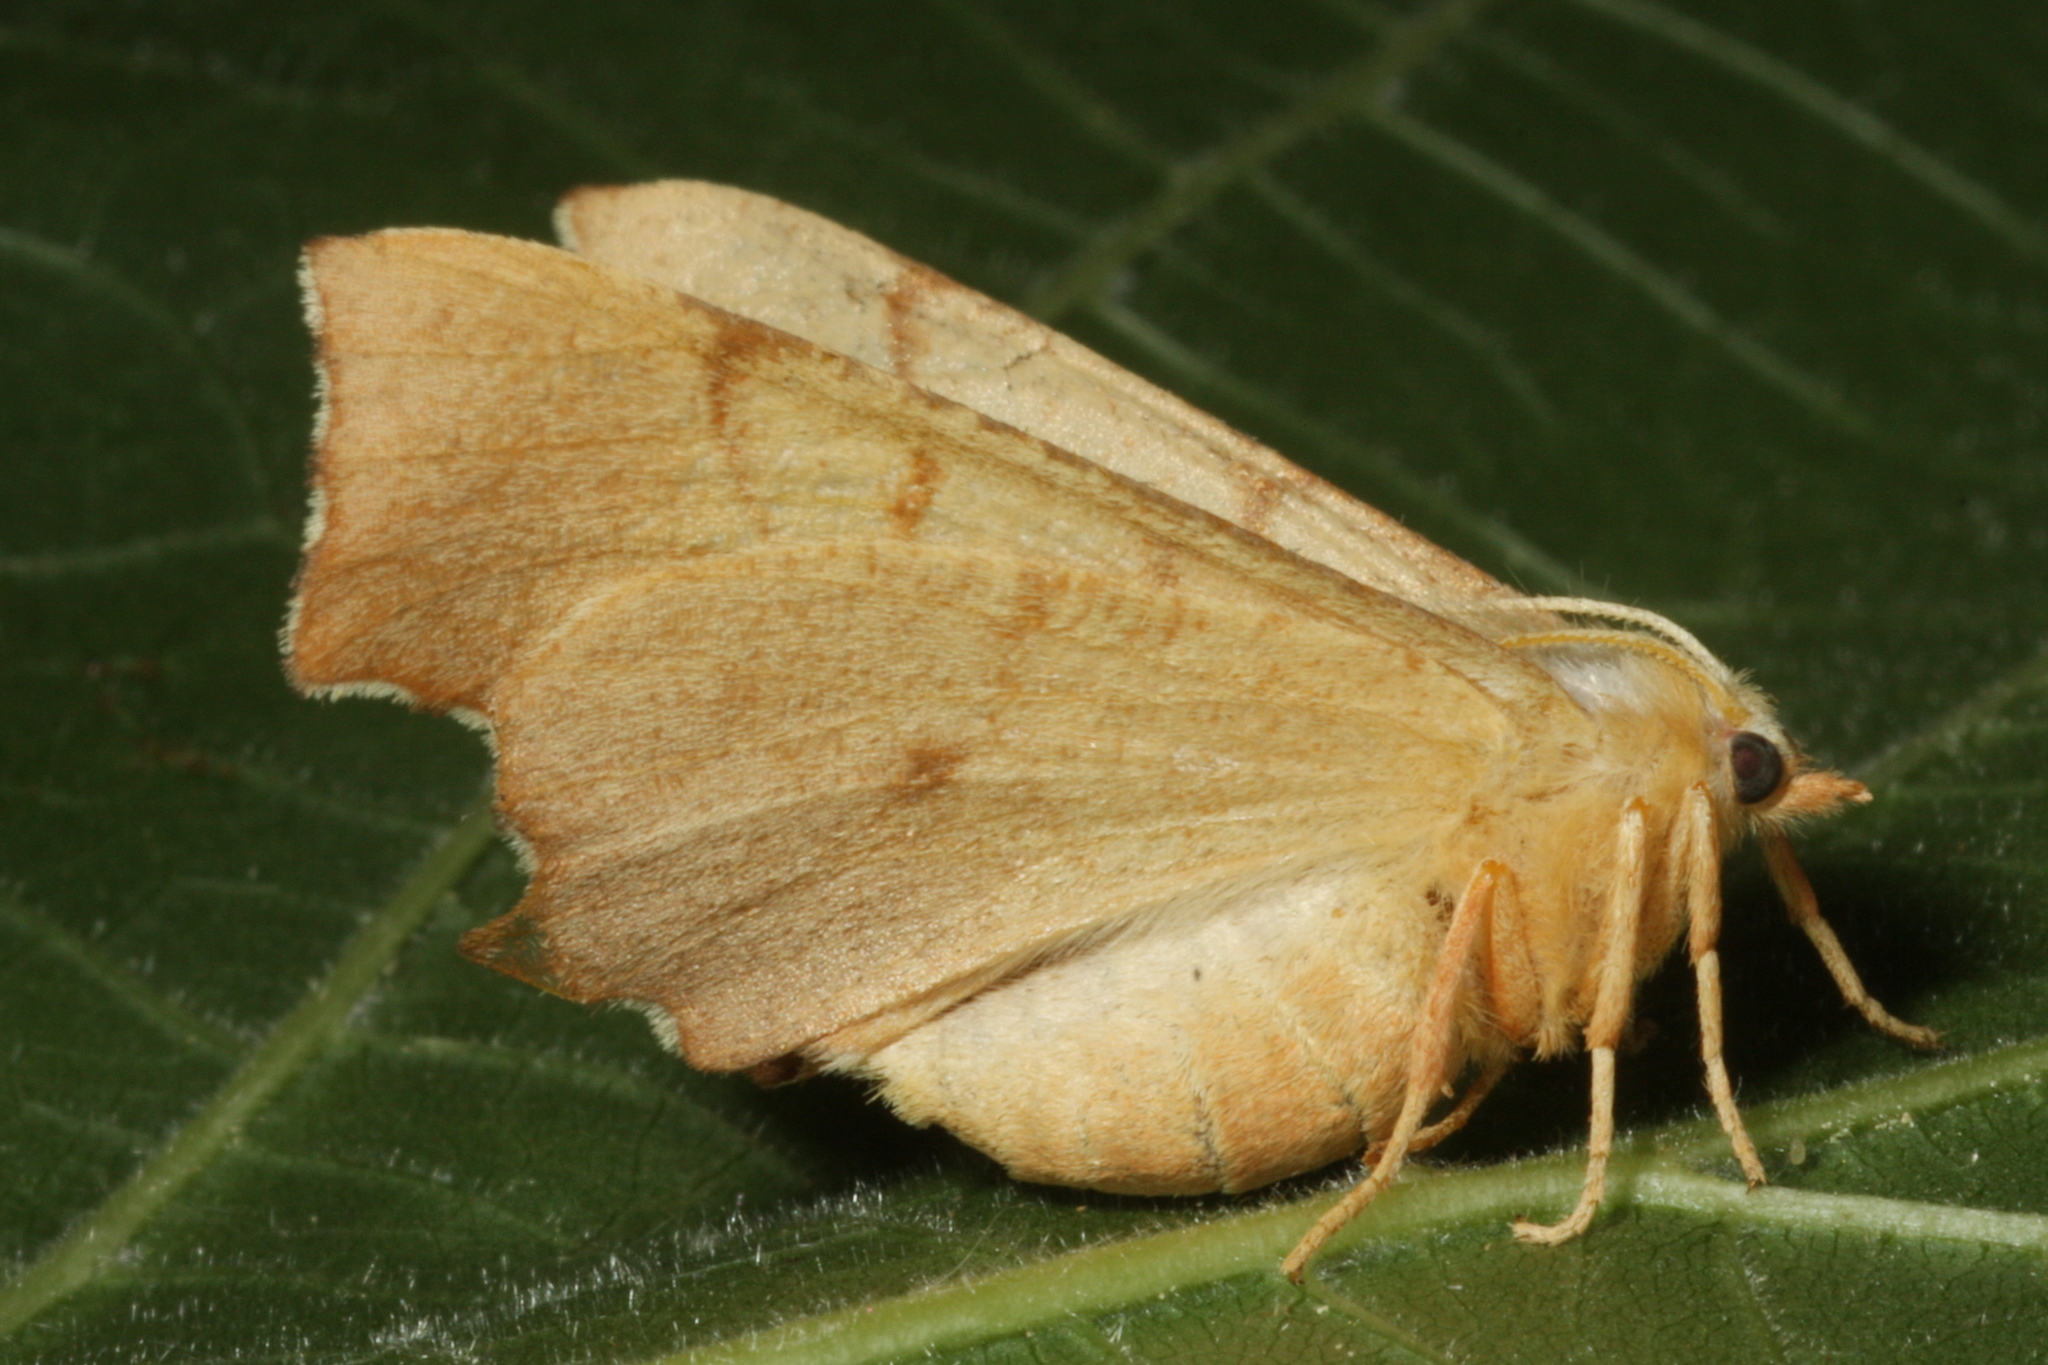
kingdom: Animalia
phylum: Arthropoda
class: Insecta
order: Lepidoptera
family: Geometridae
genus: Ennomos
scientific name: Ennomos erosaria
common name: September thorn
